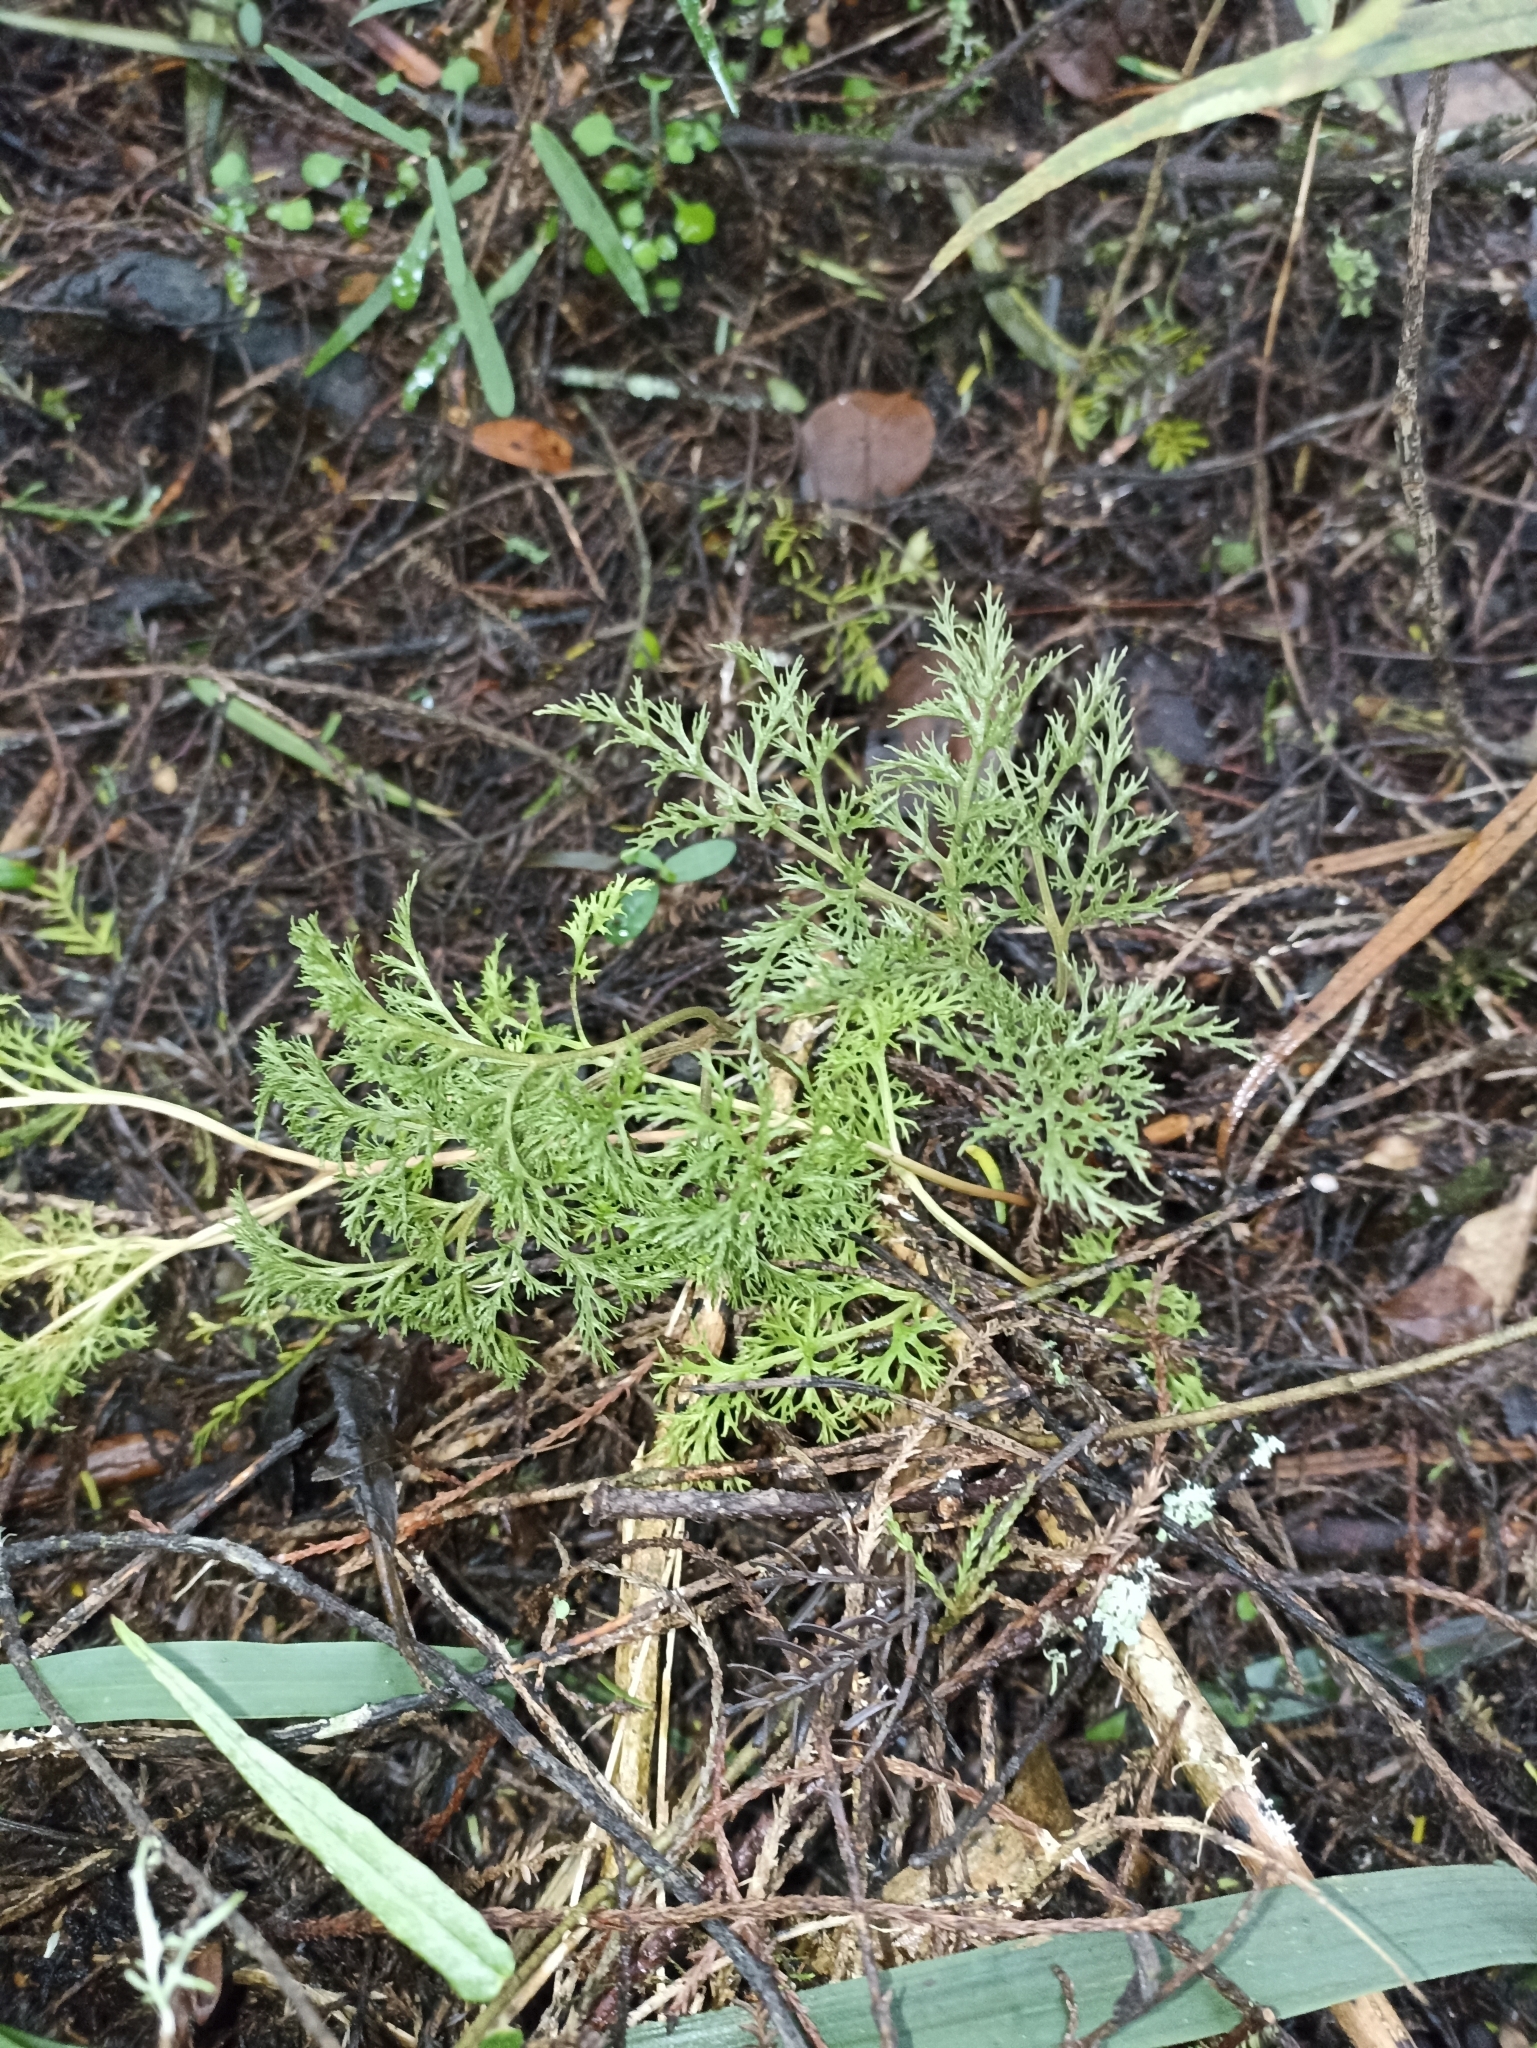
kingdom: Plantae
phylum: Tracheophyta
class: Polypodiopsida
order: Ophioglossales
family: Ophioglossaceae
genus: Sceptridium
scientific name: Sceptridium biforme
